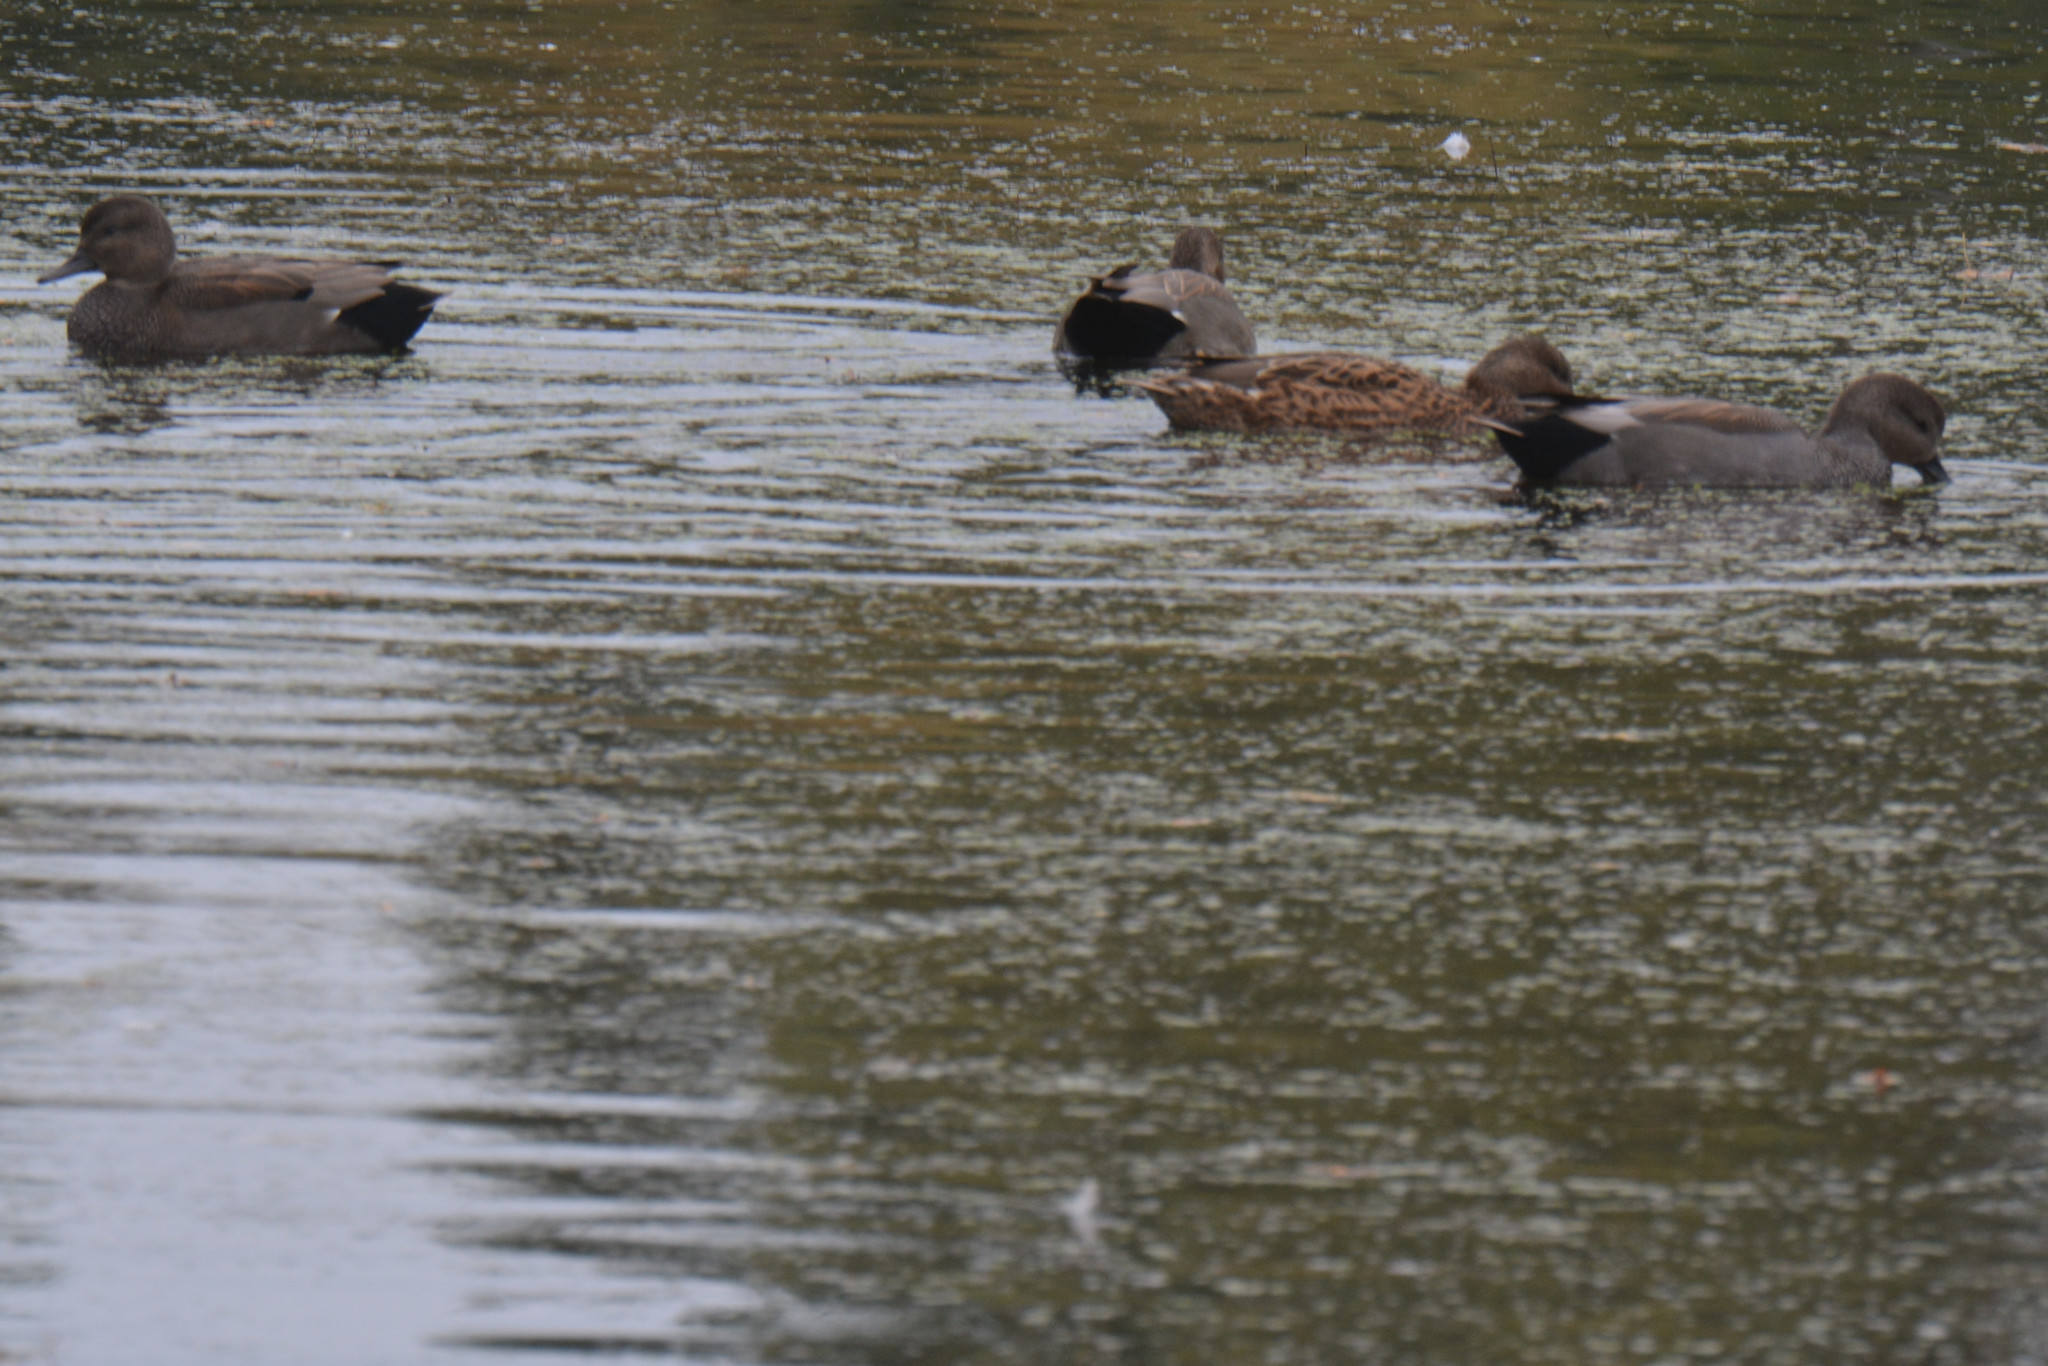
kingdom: Animalia
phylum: Chordata
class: Aves
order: Anseriformes
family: Anatidae
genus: Mareca
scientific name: Mareca strepera
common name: Gadwall
